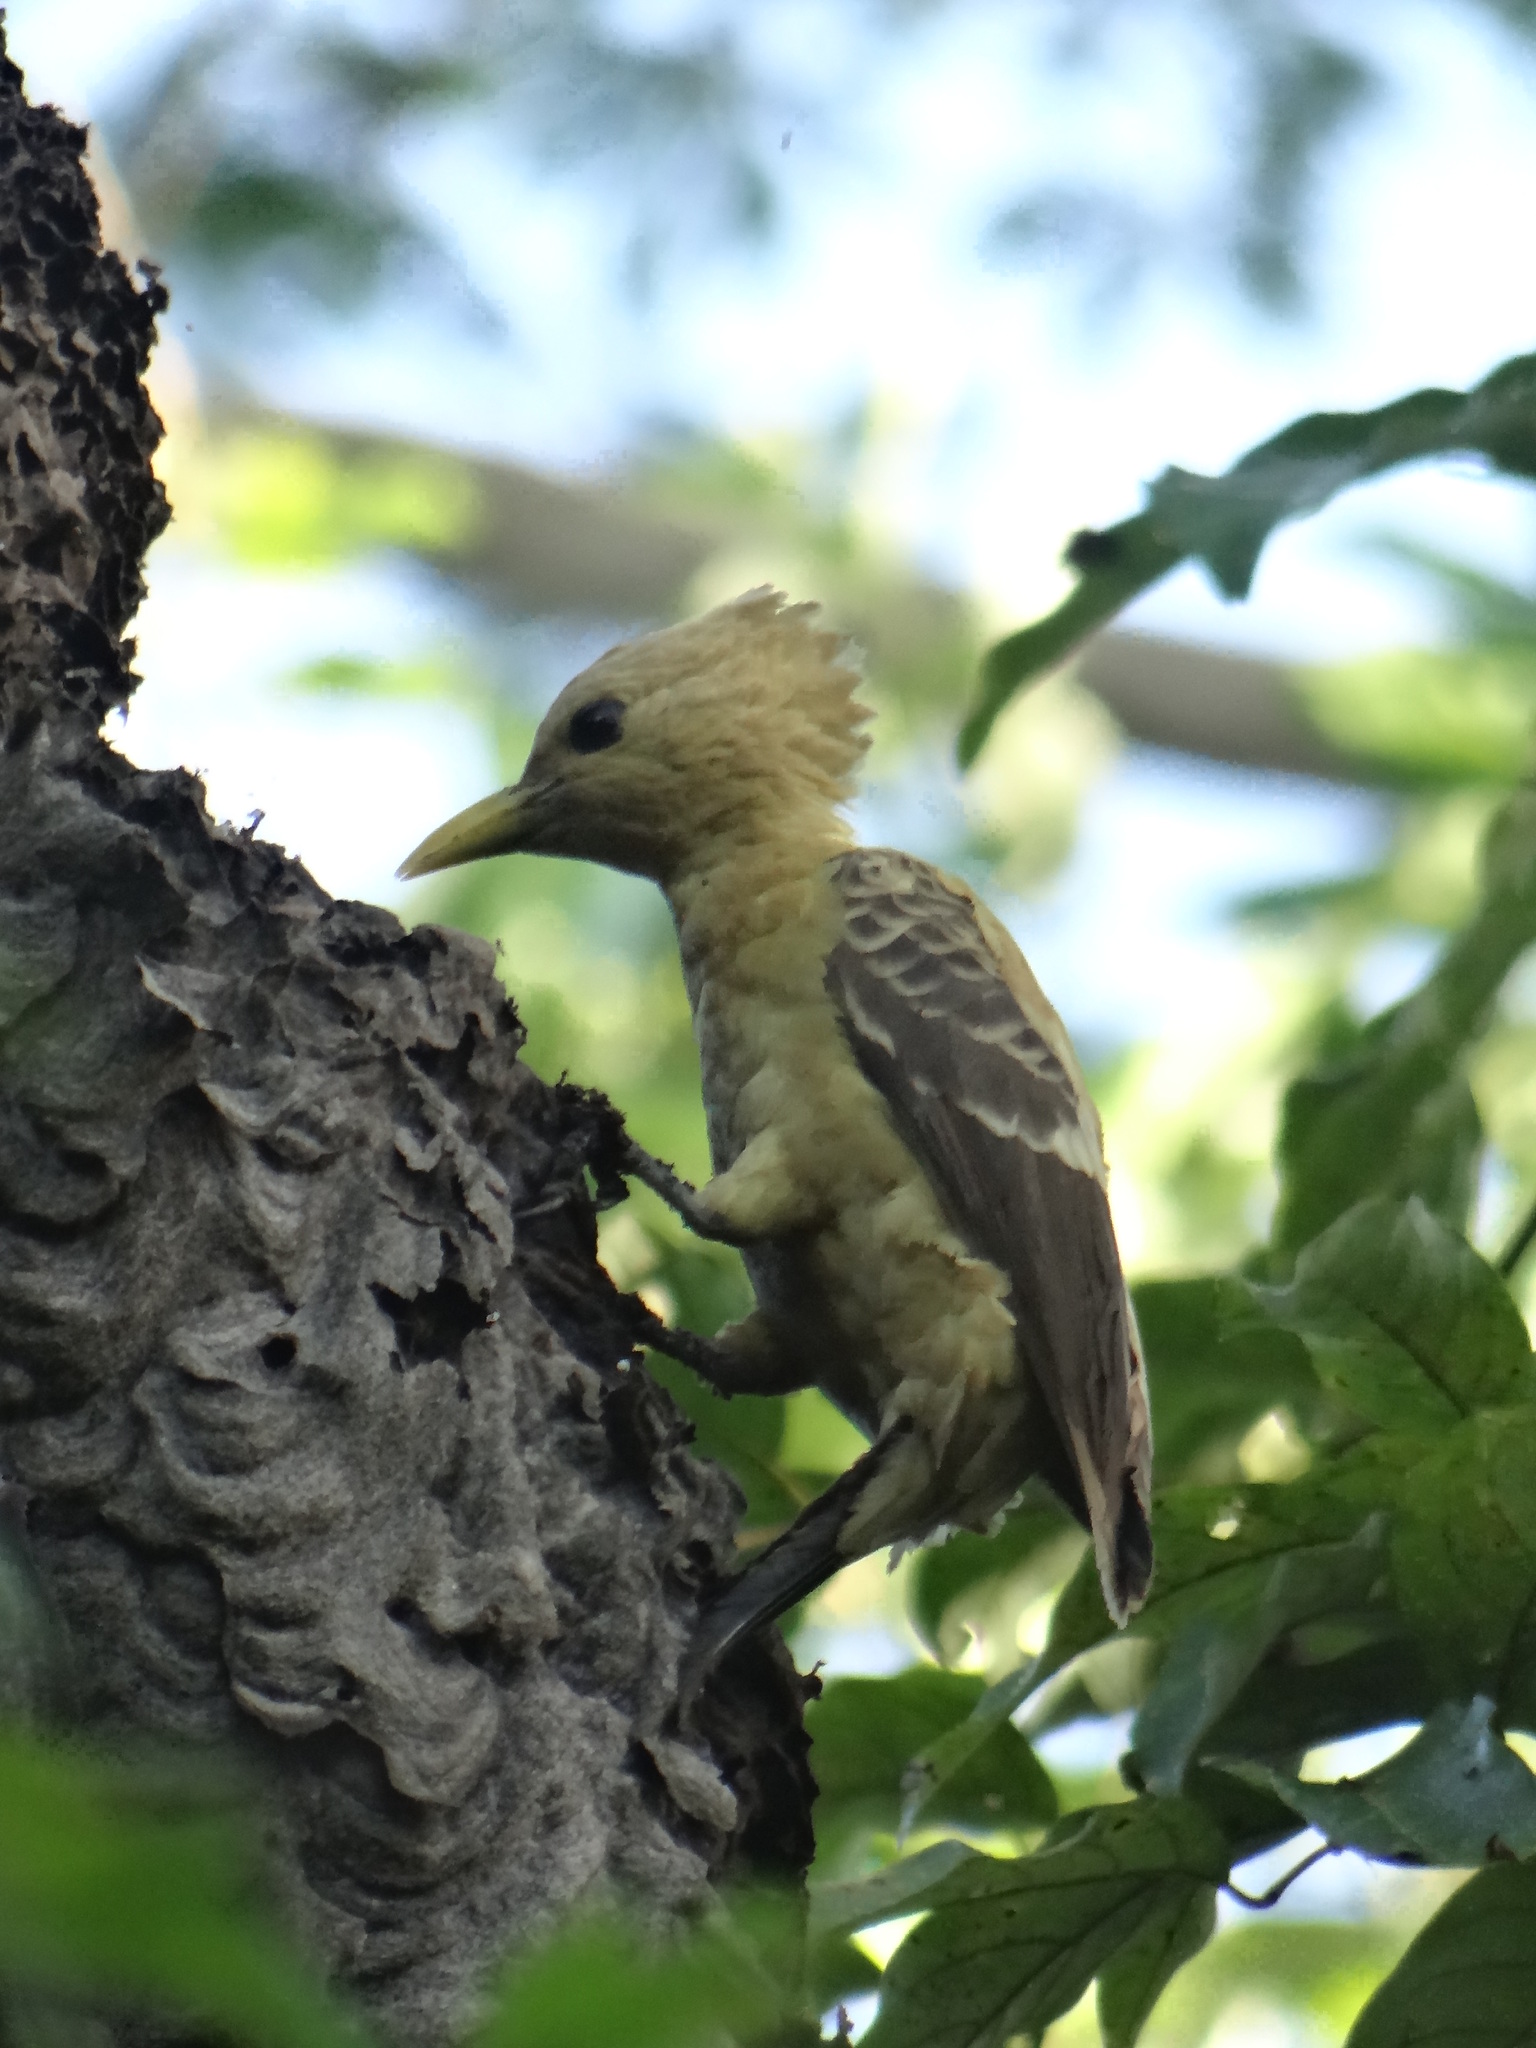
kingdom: Animalia
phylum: Chordata
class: Aves
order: Piciformes
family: Picidae
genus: Celeus
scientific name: Celeus flavus
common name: Cream-colored woodpecker
